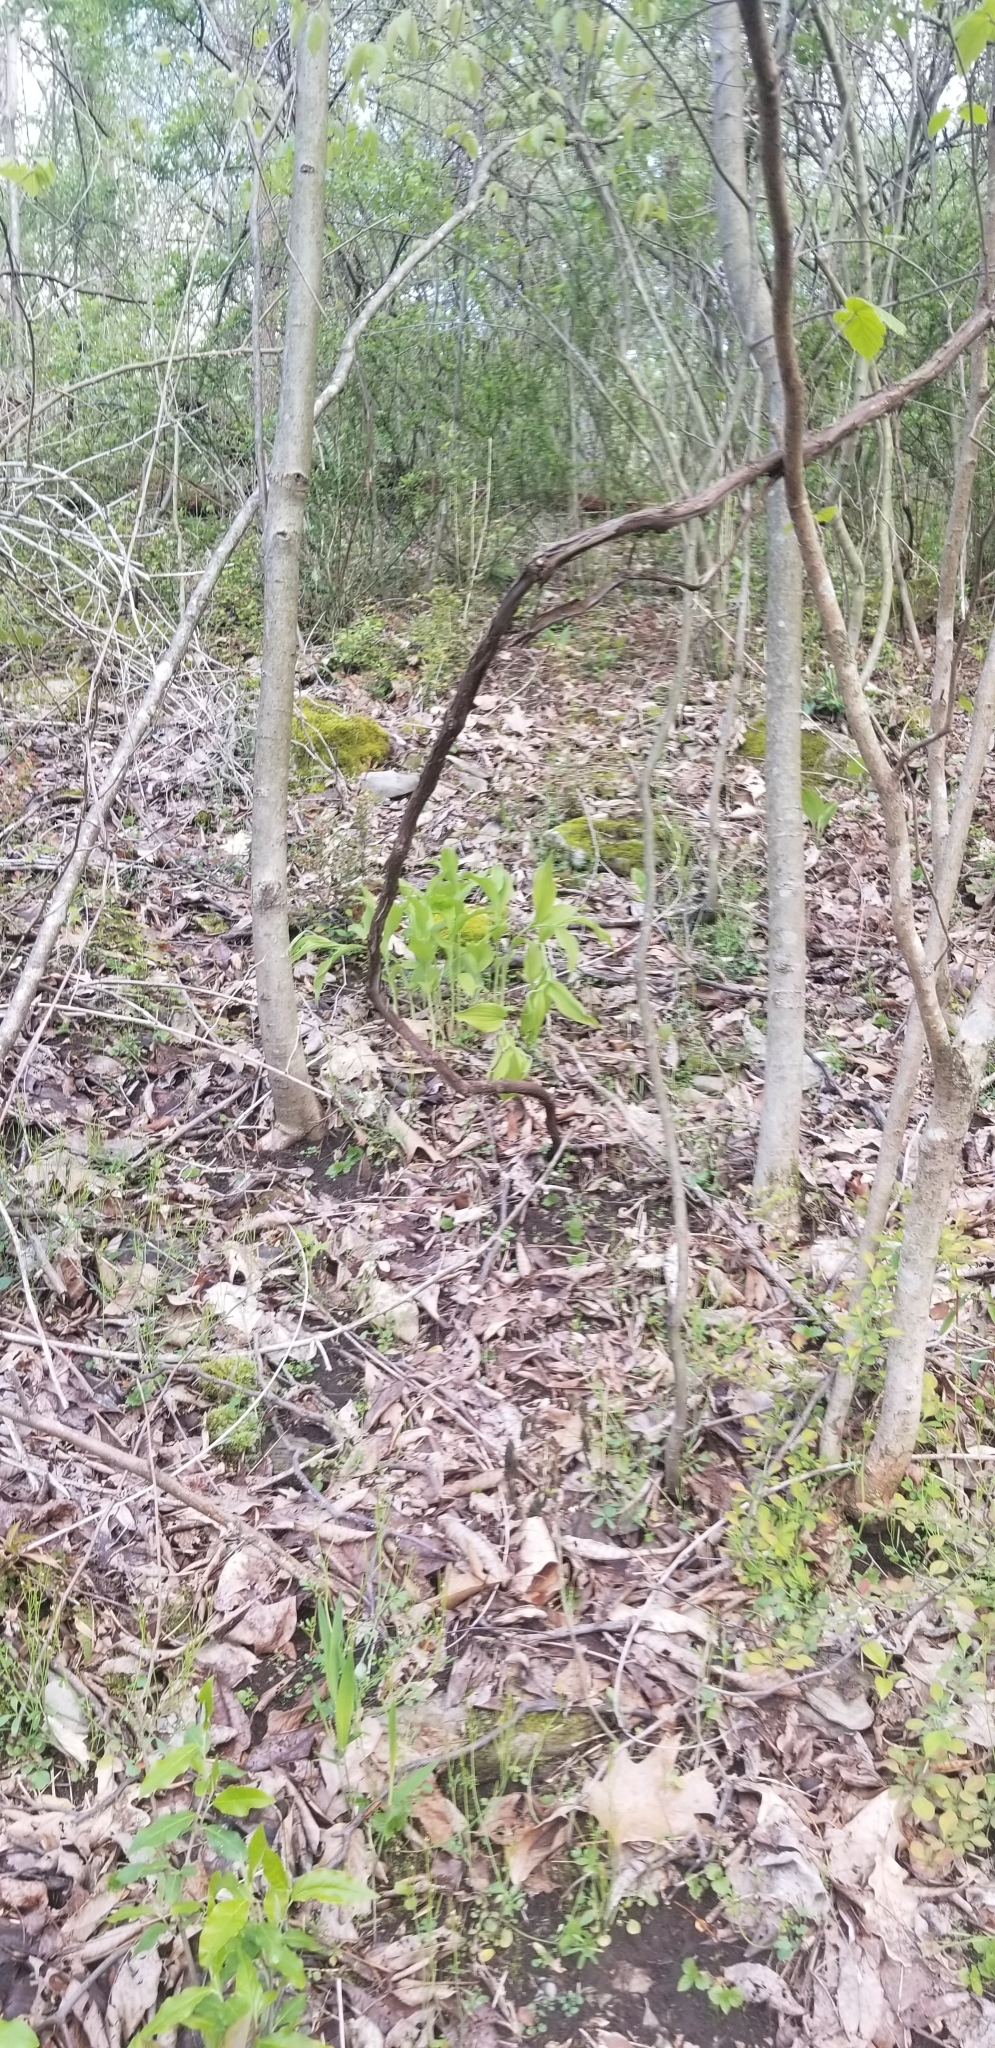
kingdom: Plantae
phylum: Tracheophyta
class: Liliopsida
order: Asparagales
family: Orchidaceae
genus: Cypripedium
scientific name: Cypripedium parviflorum
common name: American yellow lady's-slipper
